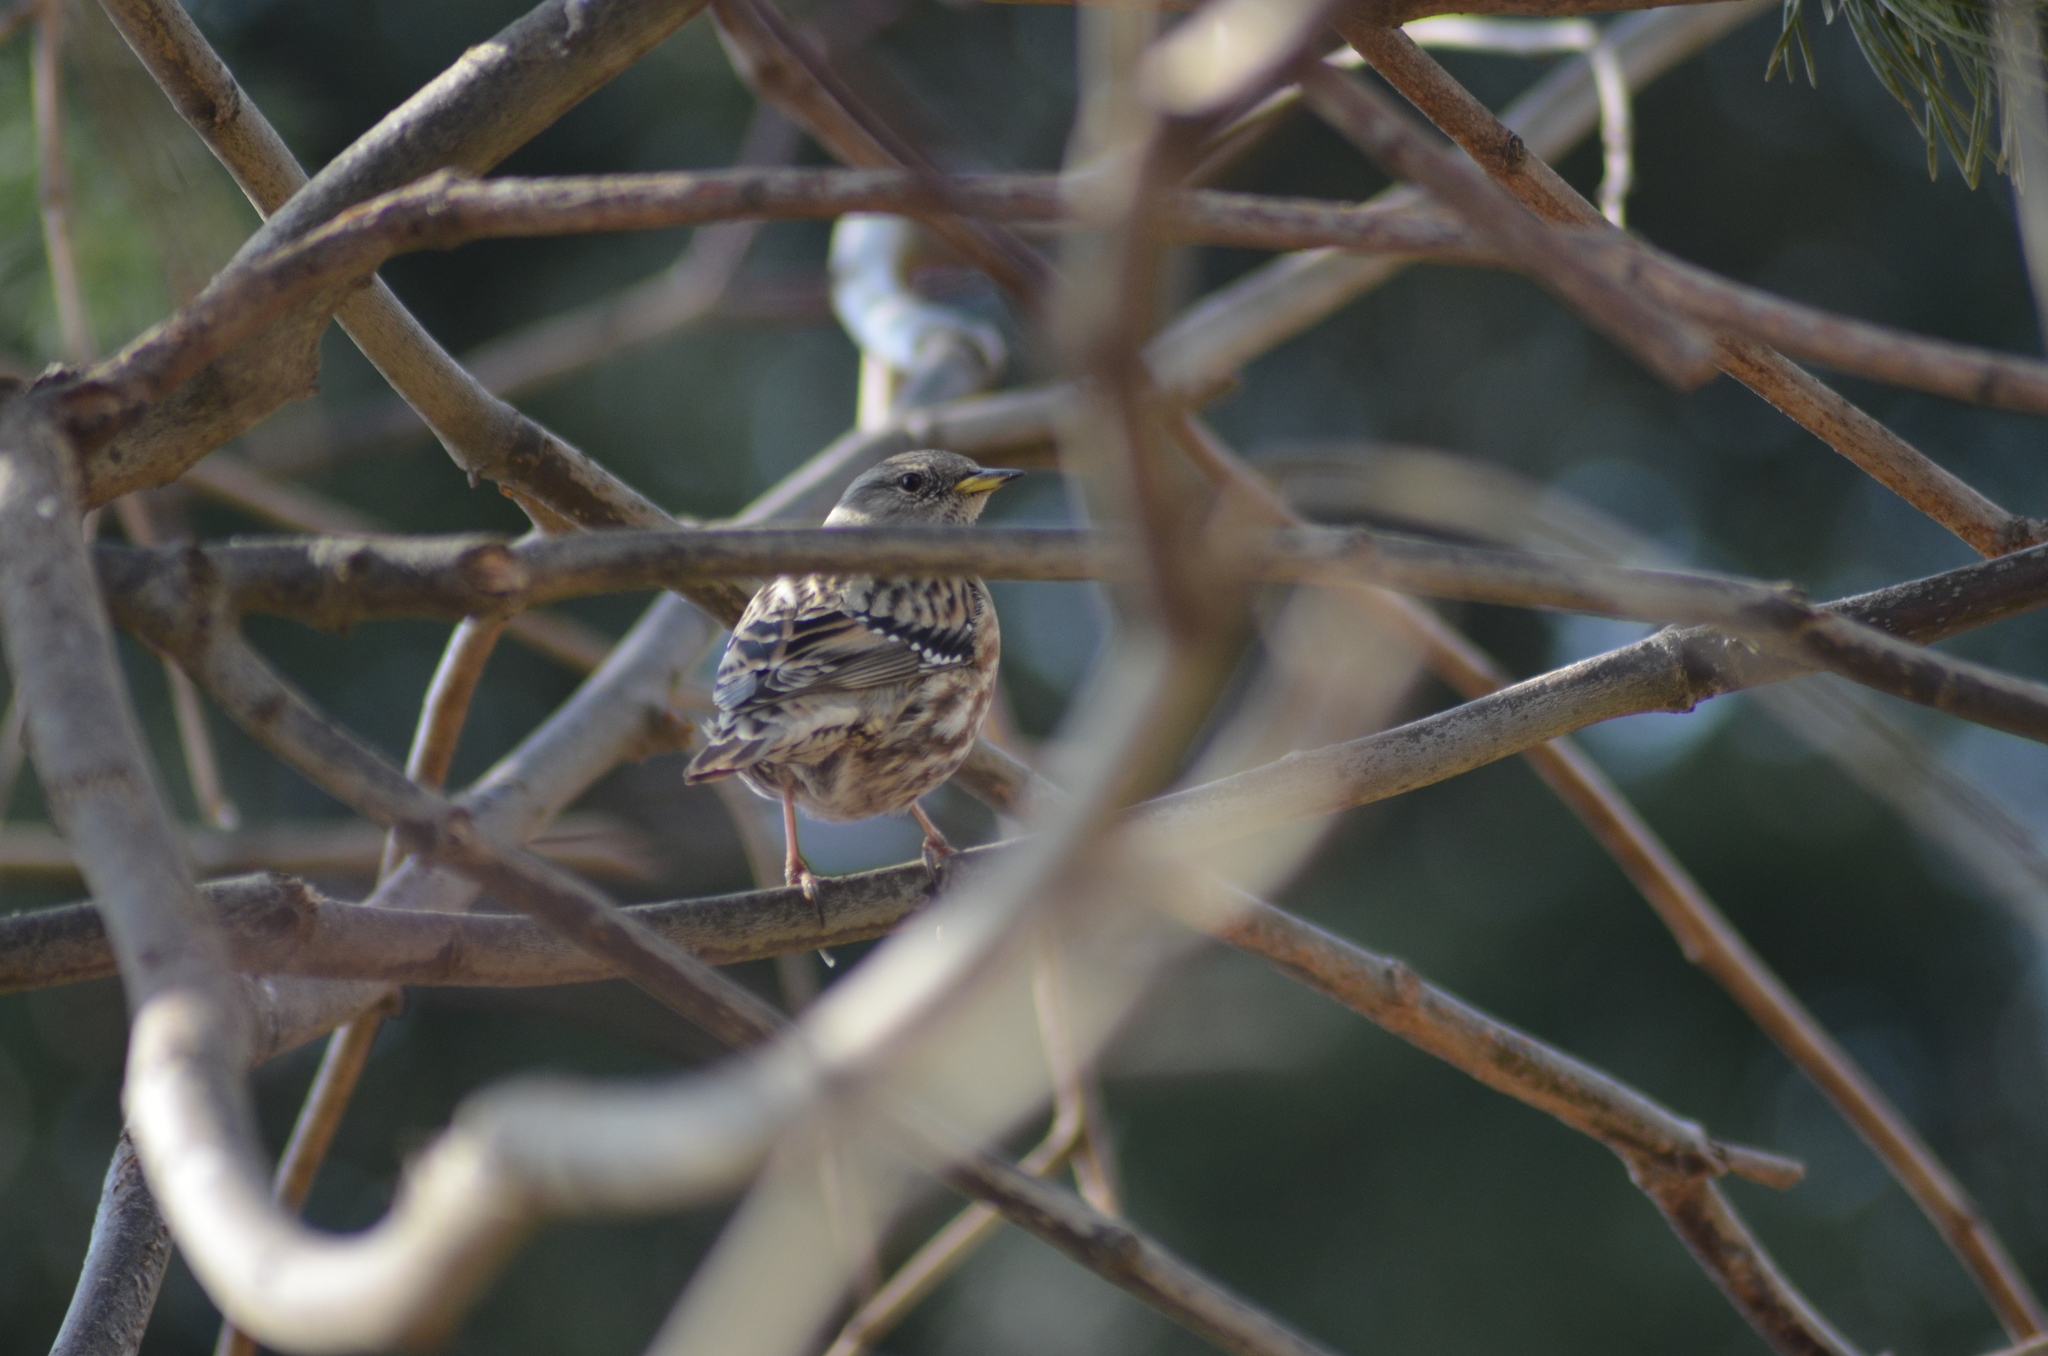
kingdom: Animalia
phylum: Chordata
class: Aves
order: Passeriformes
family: Prunellidae
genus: Prunella
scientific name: Prunella collaris
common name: Alpine accentor
